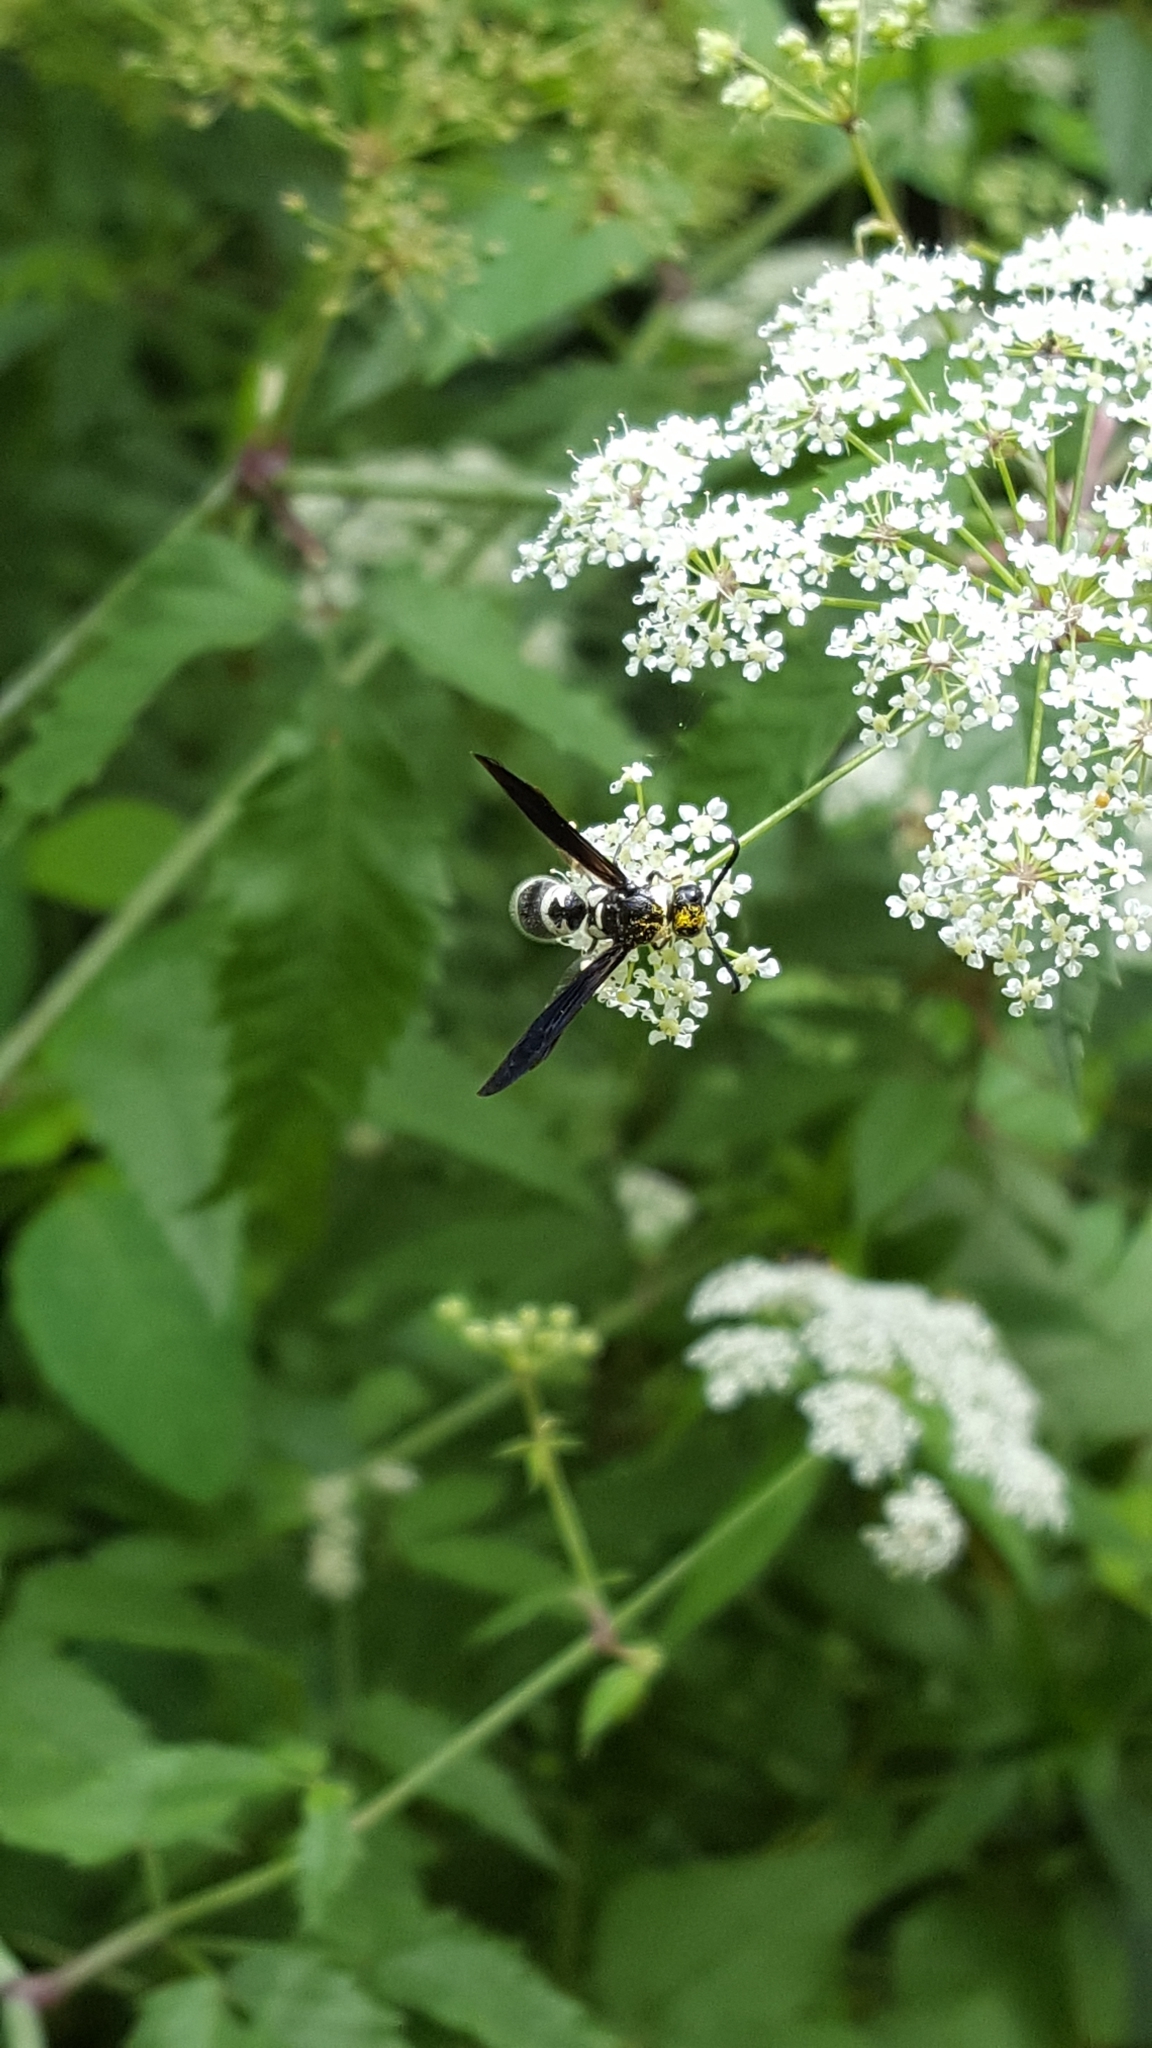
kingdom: Animalia
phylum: Arthropoda
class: Insecta
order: Hymenoptera
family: Eumenidae
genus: Pseudodynerus
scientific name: Pseudodynerus quadrisectus
